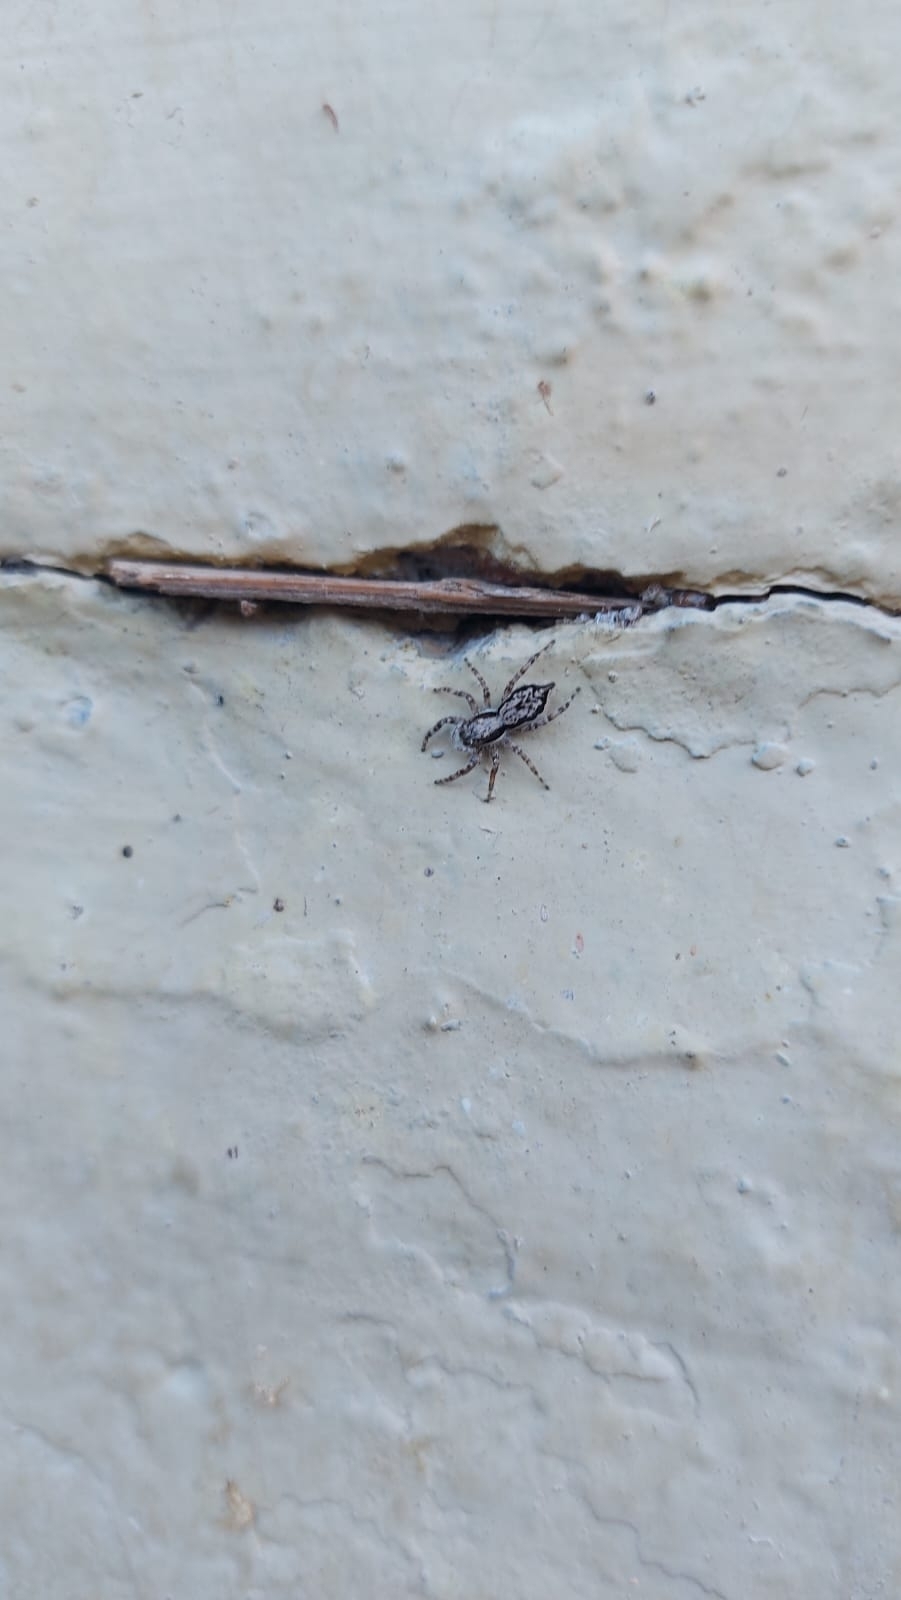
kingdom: Animalia
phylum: Arthropoda
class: Arachnida
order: Araneae
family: Salticidae
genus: Menemerus
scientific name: Menemerus bivittatus
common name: Gray wall jumper
